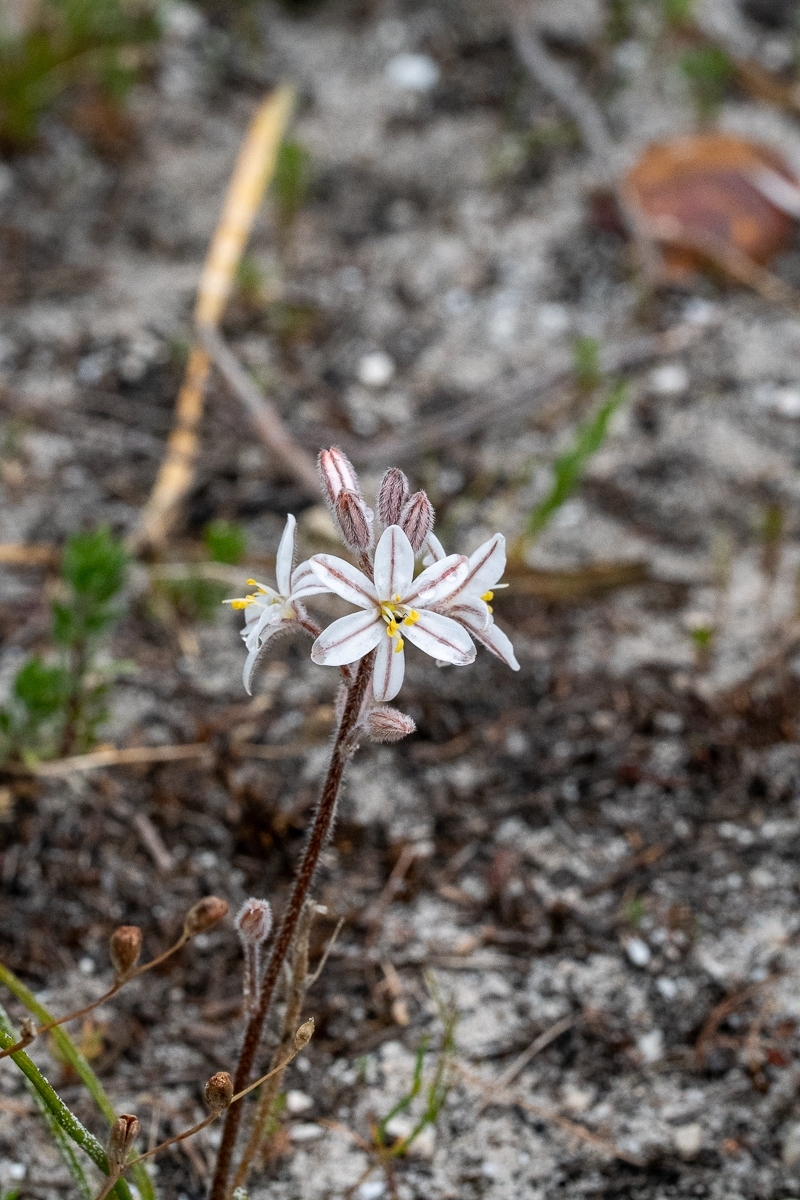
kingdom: Plantae
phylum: Tracheophyta
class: Liliopsida
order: Asparagales
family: Asphodelaceae
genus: Trachyandra
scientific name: Trachyandra hirsutiflora
